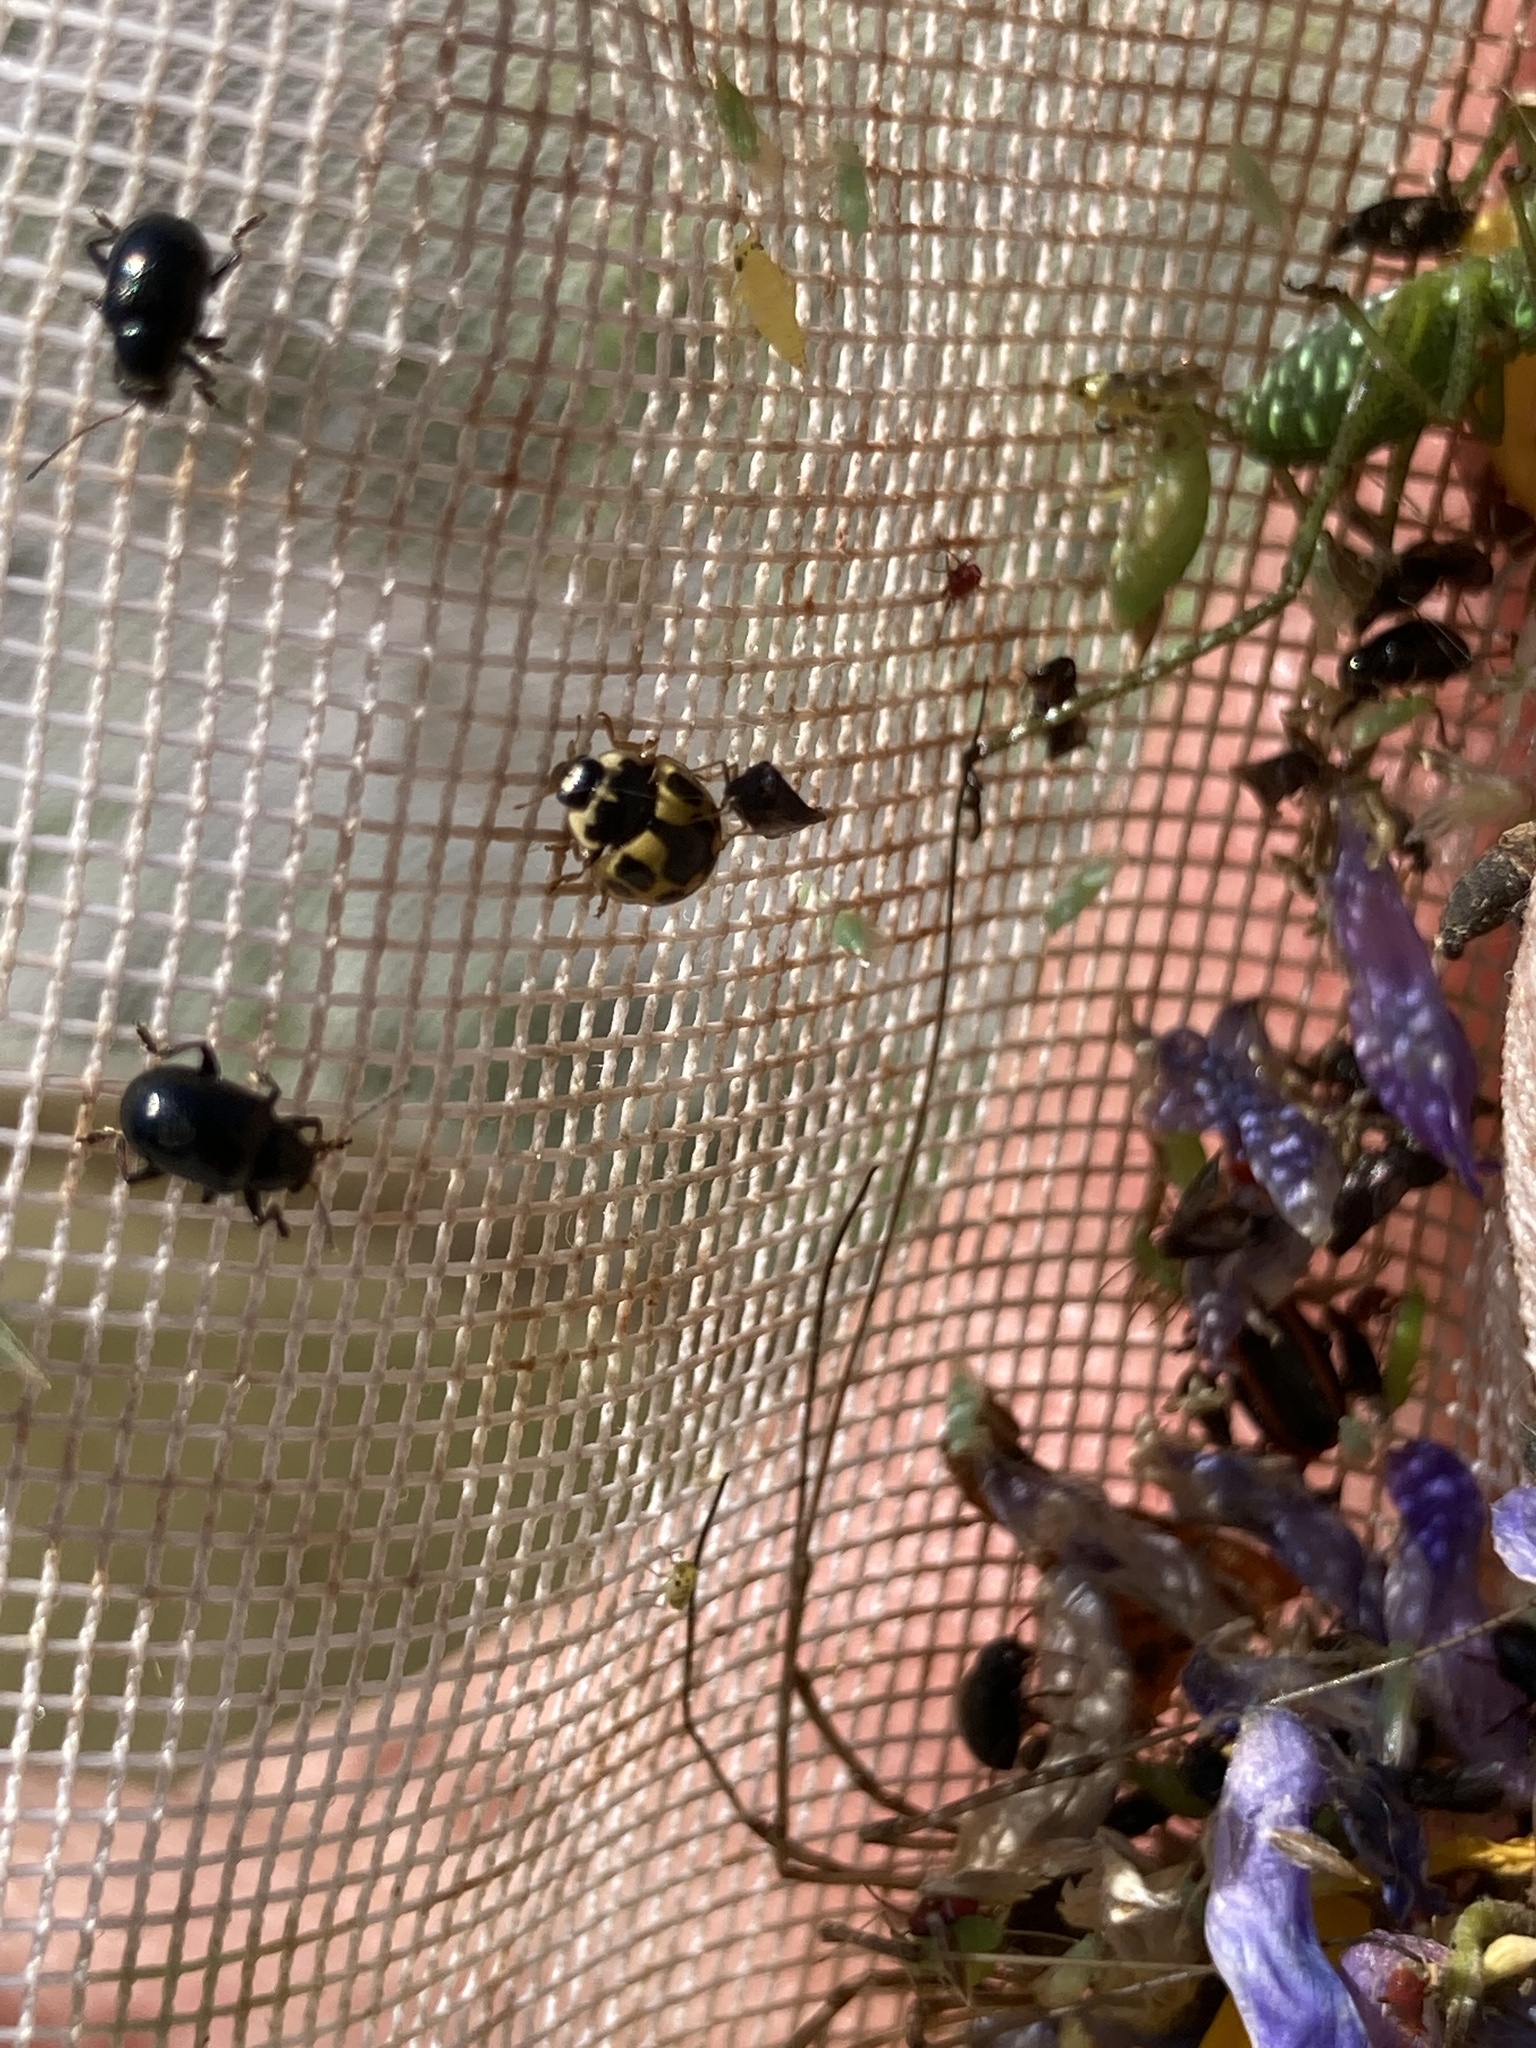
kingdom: Animalia
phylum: Arthropoda
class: Insecta
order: Coleoptera
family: Coccinellidae
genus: Propylaea
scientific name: Propylaea quatuordecimpunctata
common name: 14-spotted ladybird beetle
